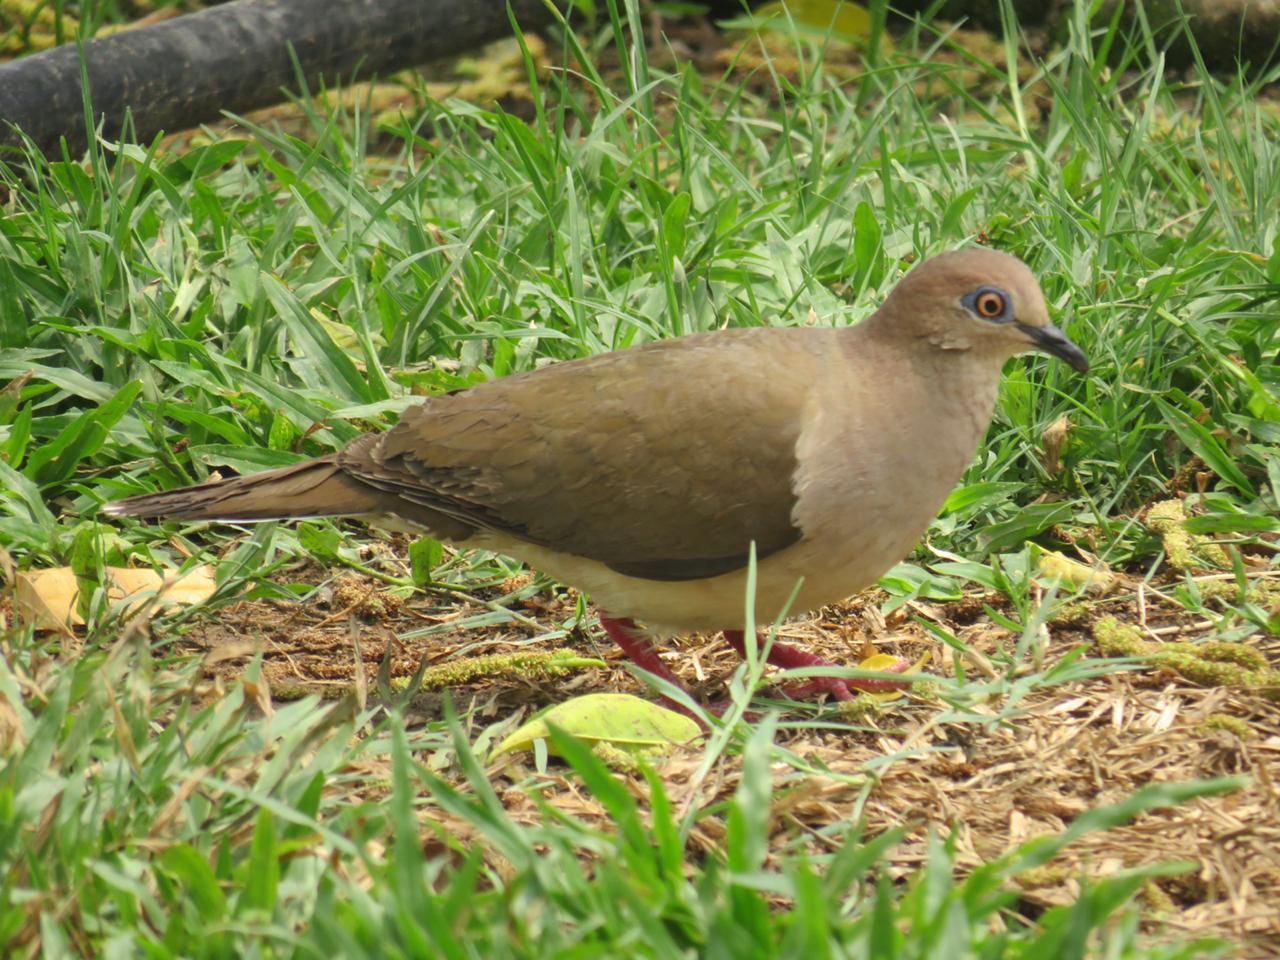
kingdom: Animalia
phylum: Chordata
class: Aves
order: Columbiformes
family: Columbidae
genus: Leptotila
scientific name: Leptotila verreauxi
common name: White-tipped dove
